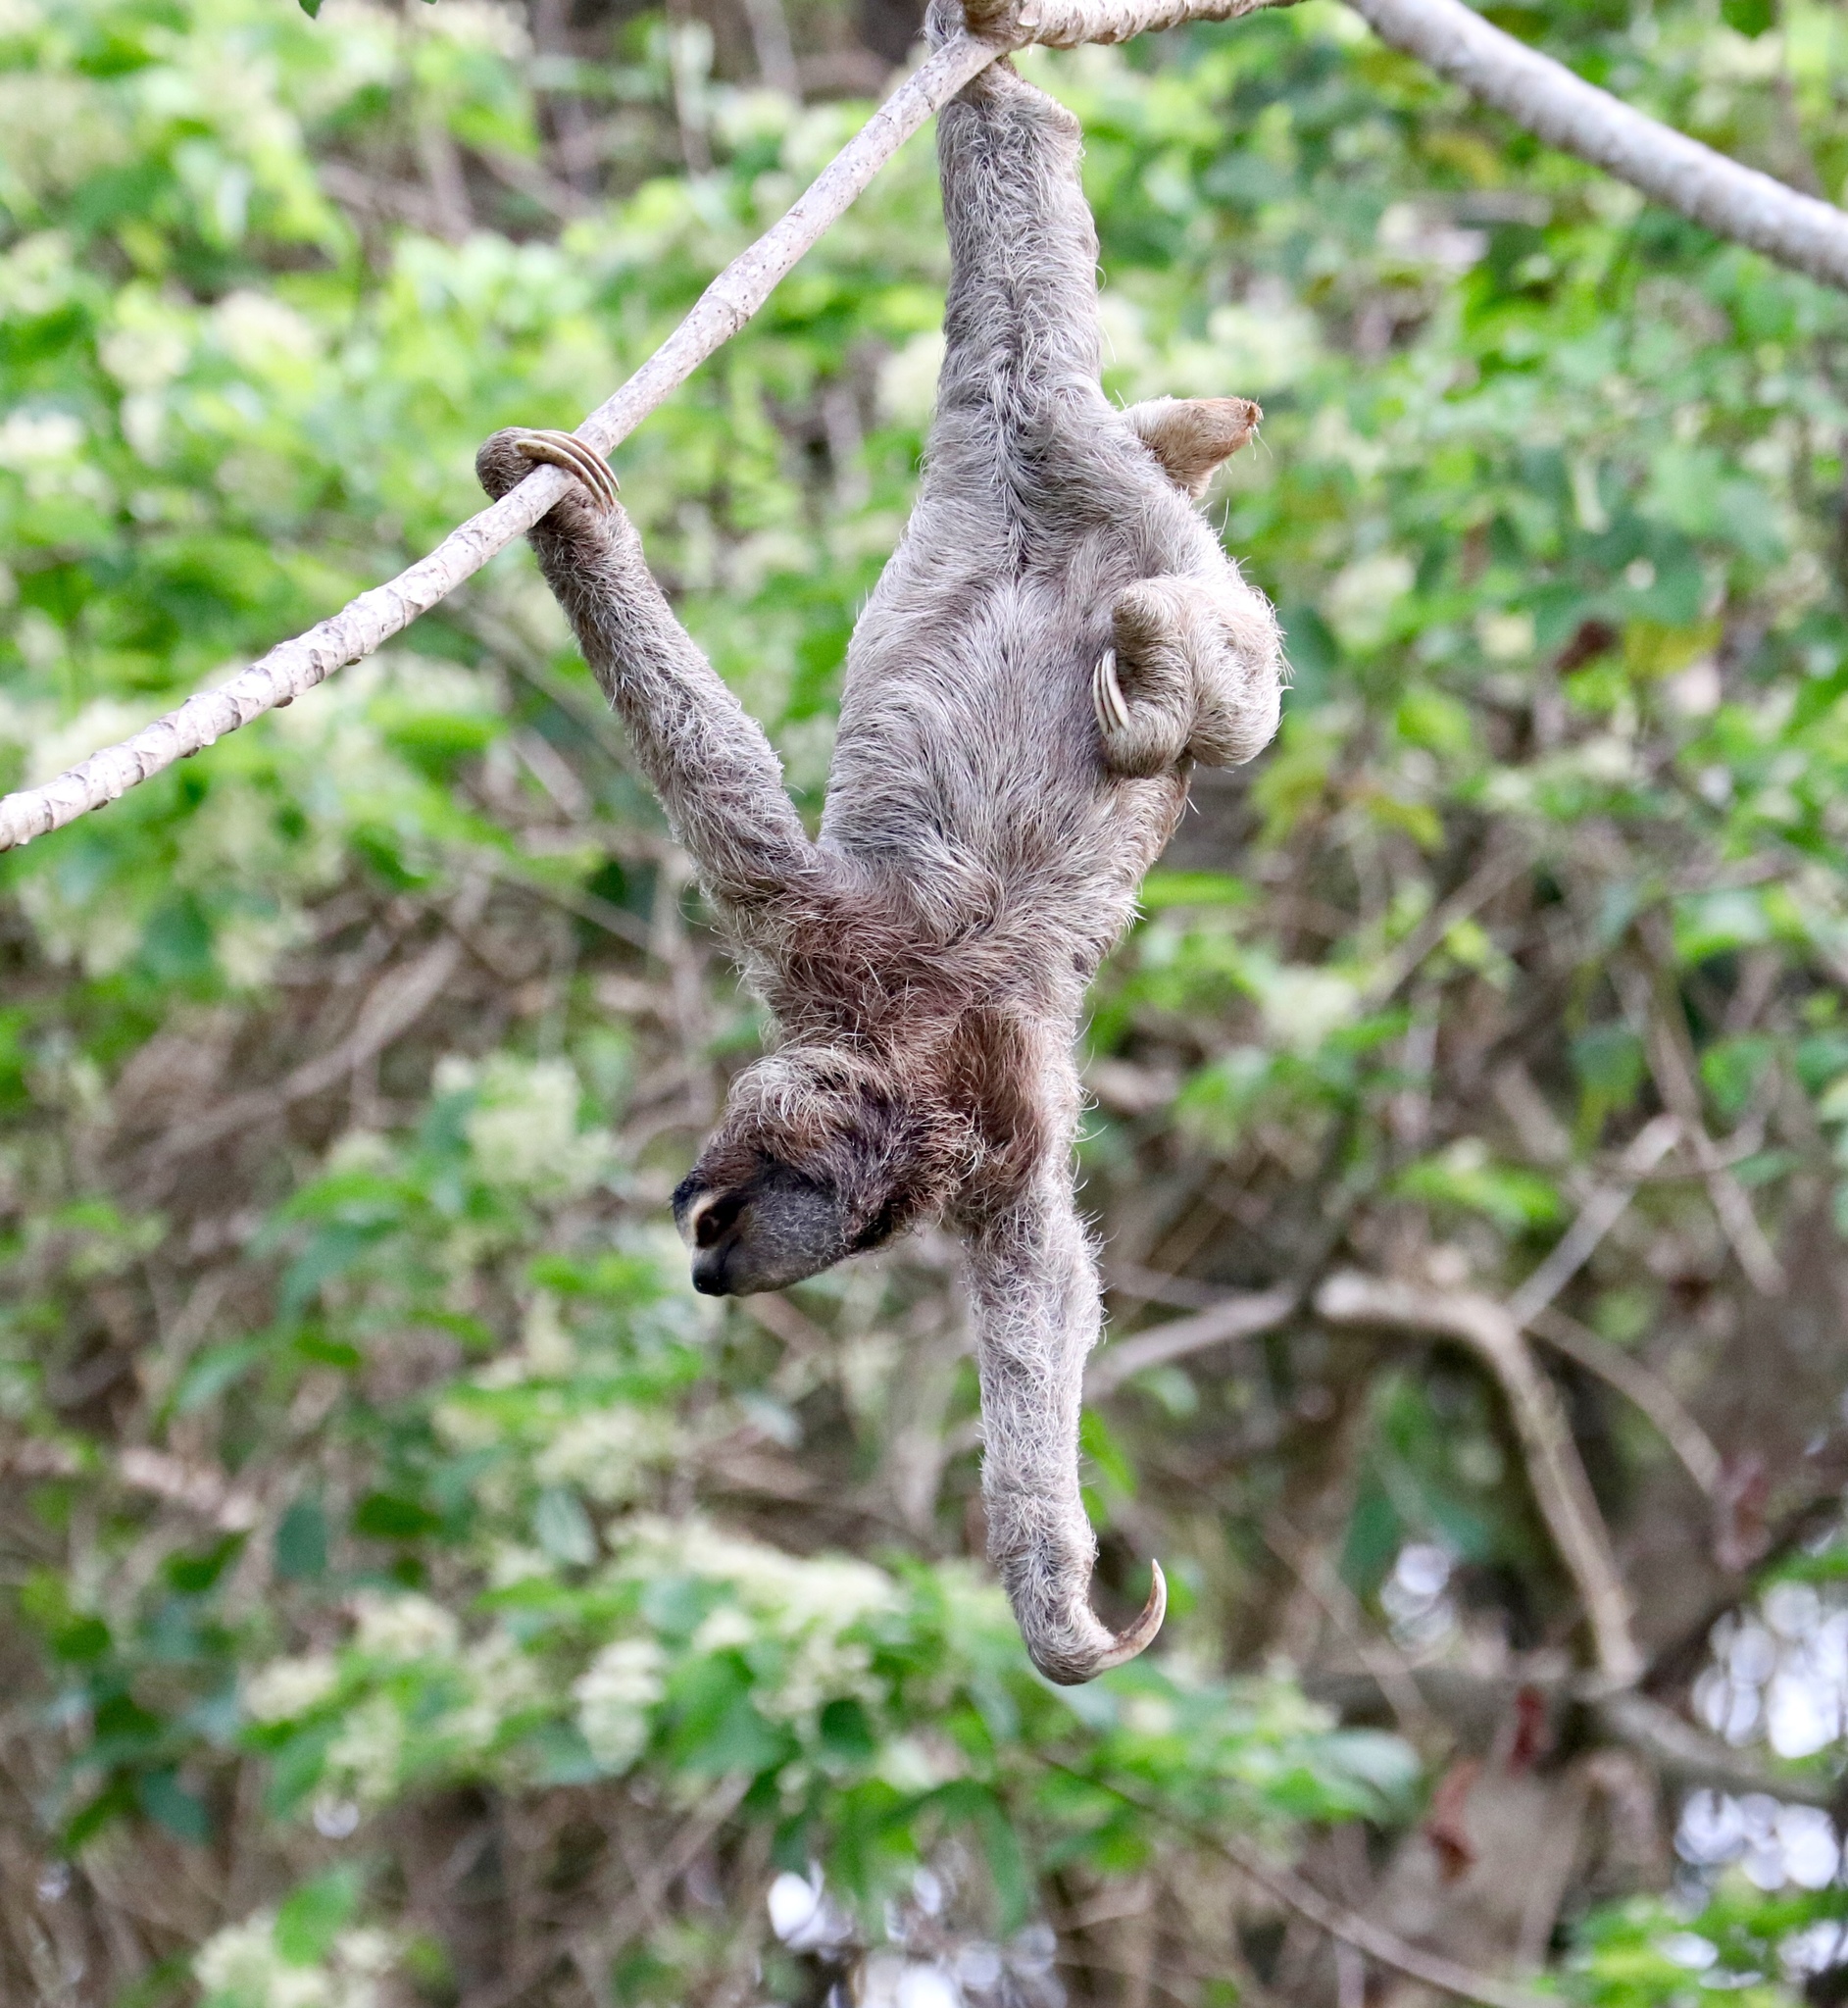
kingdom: Animalia
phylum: Chordata
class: Mammalia
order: Pilosa
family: Bradypodidae
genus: Bradypus
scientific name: Bradypus variegatus
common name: Brown-throated three-toed sloth
